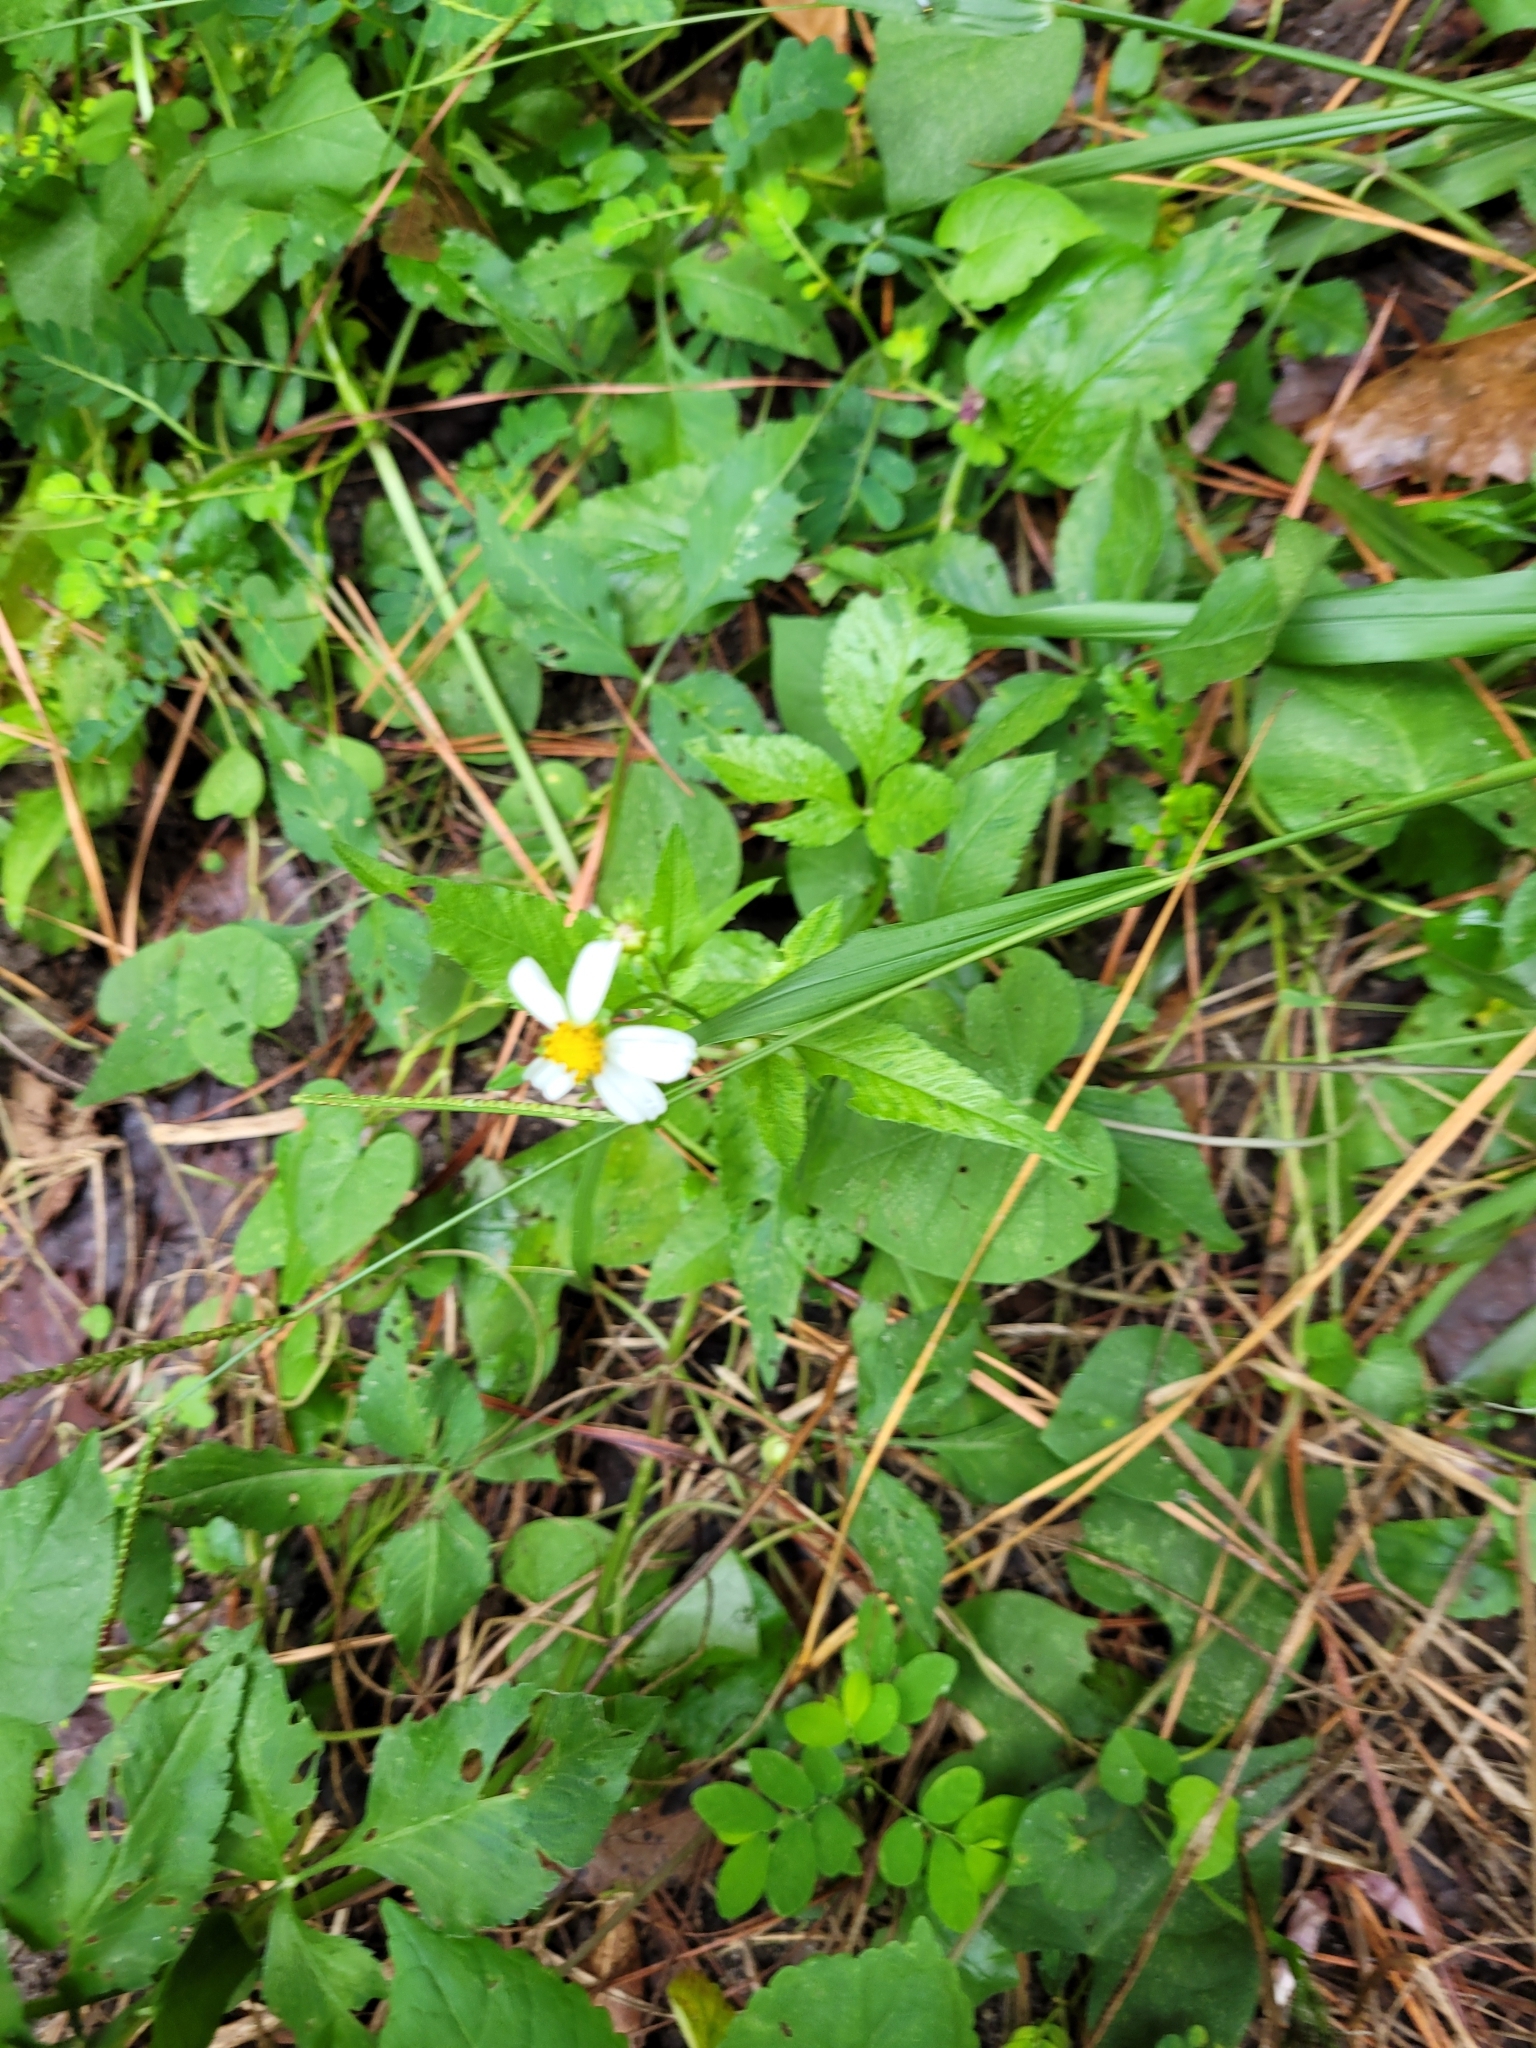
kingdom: Plantae
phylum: Tracheophyta
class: Magnoliopsida
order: Asterales
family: Asteraceae
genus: Bidens
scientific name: Bidens alba
